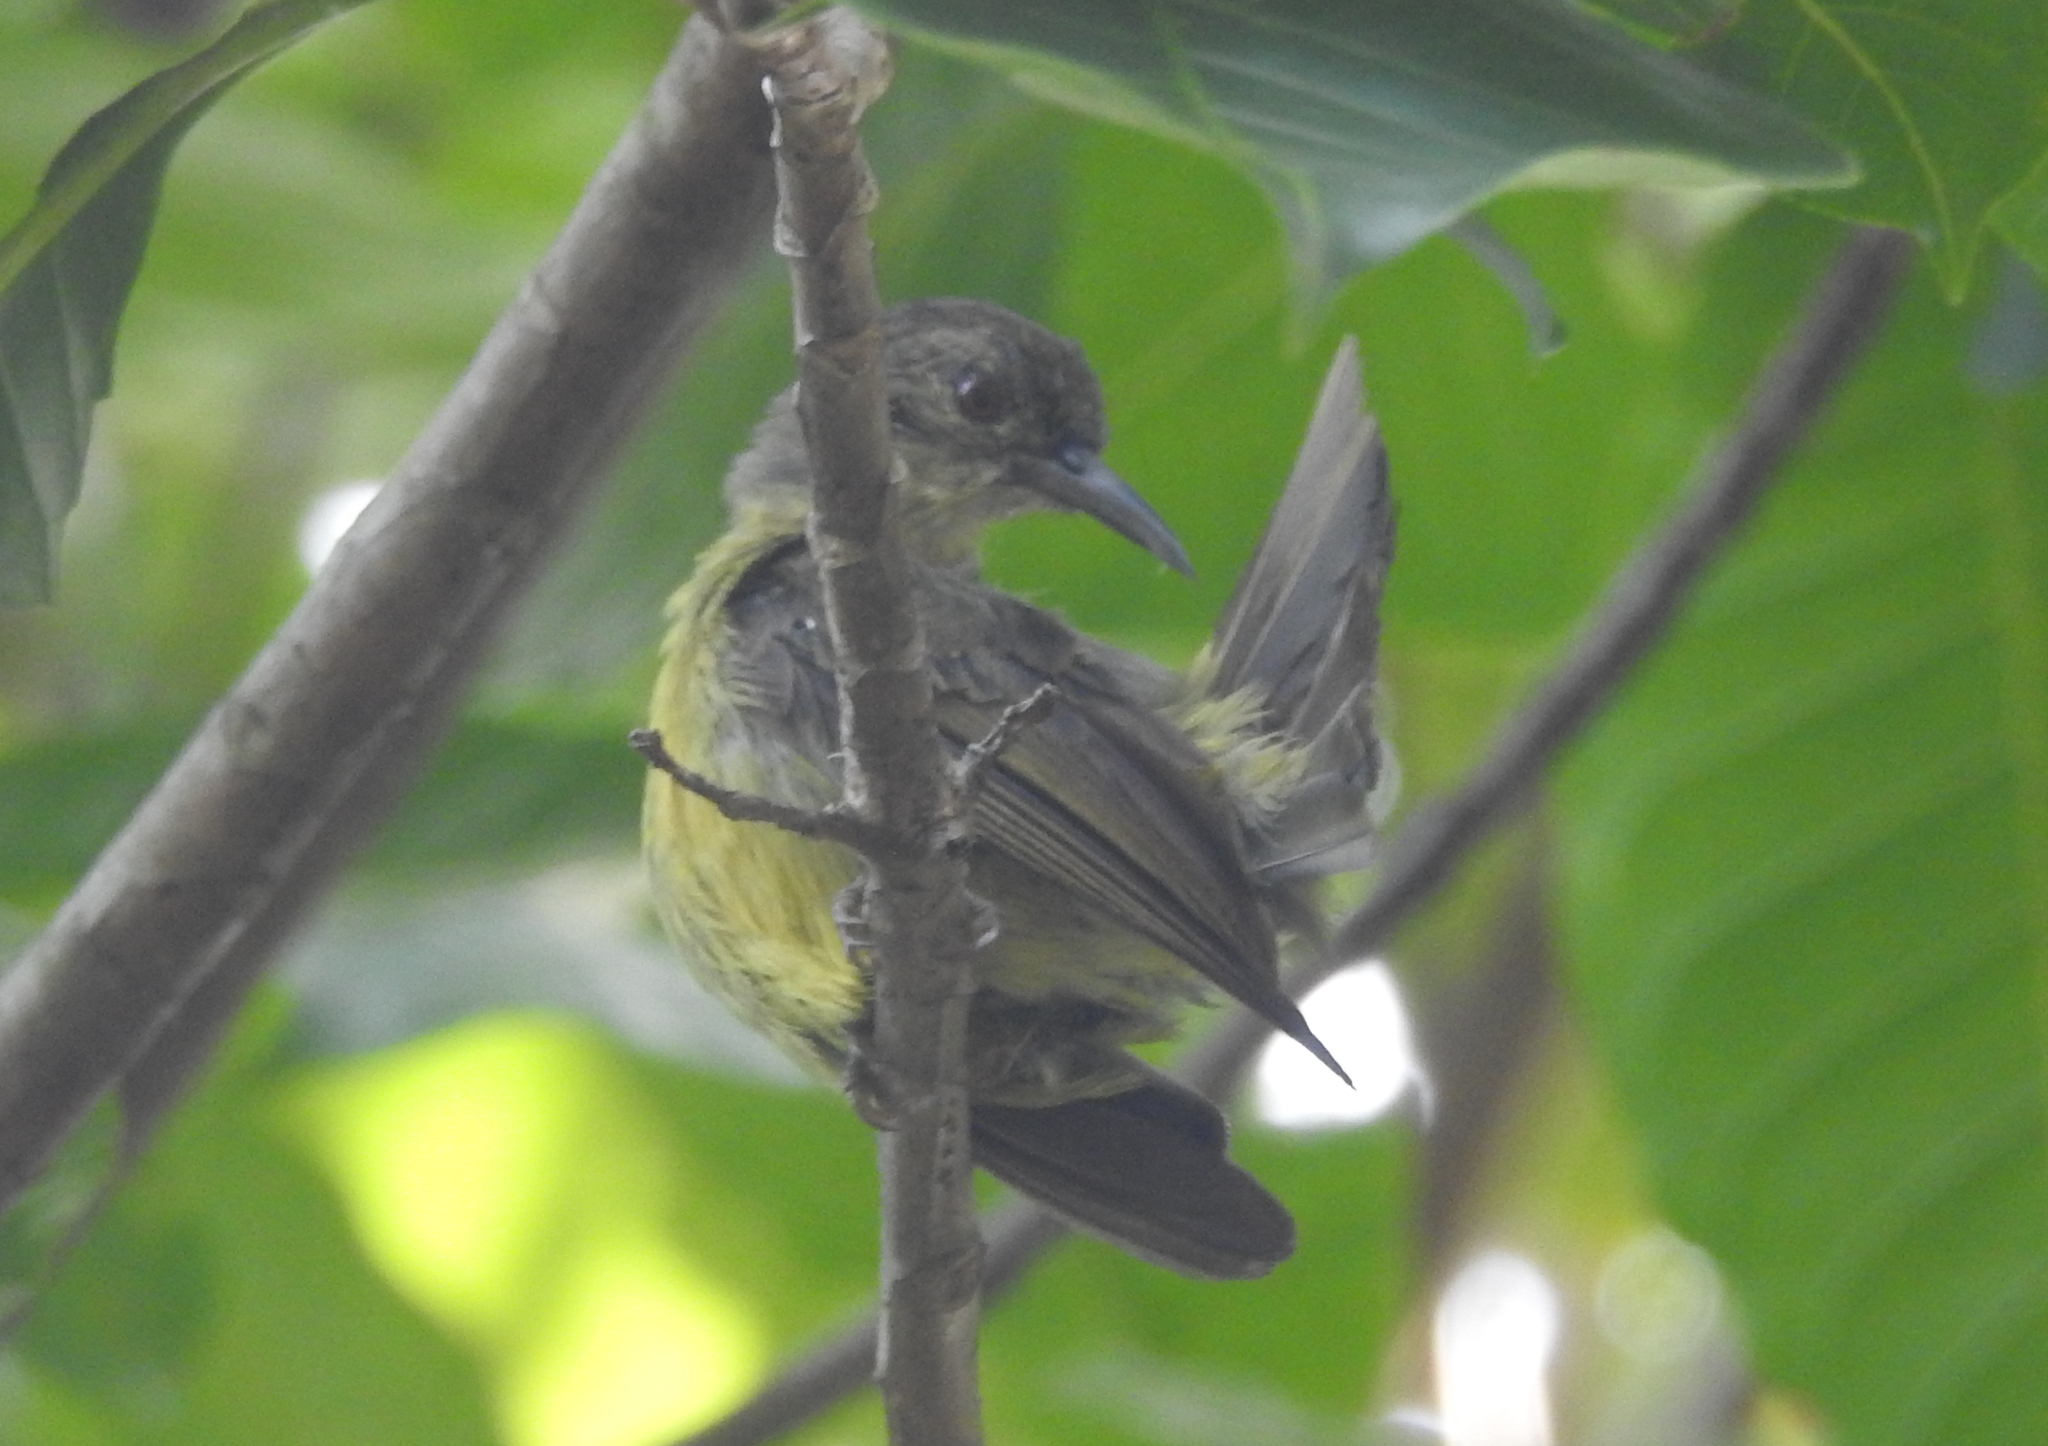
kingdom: Animalia
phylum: Chordata
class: Aves
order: Passeriformes
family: Nectariniidae
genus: Anthreptes
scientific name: Anthreptes malacensis
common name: Brown-throated sunbird
